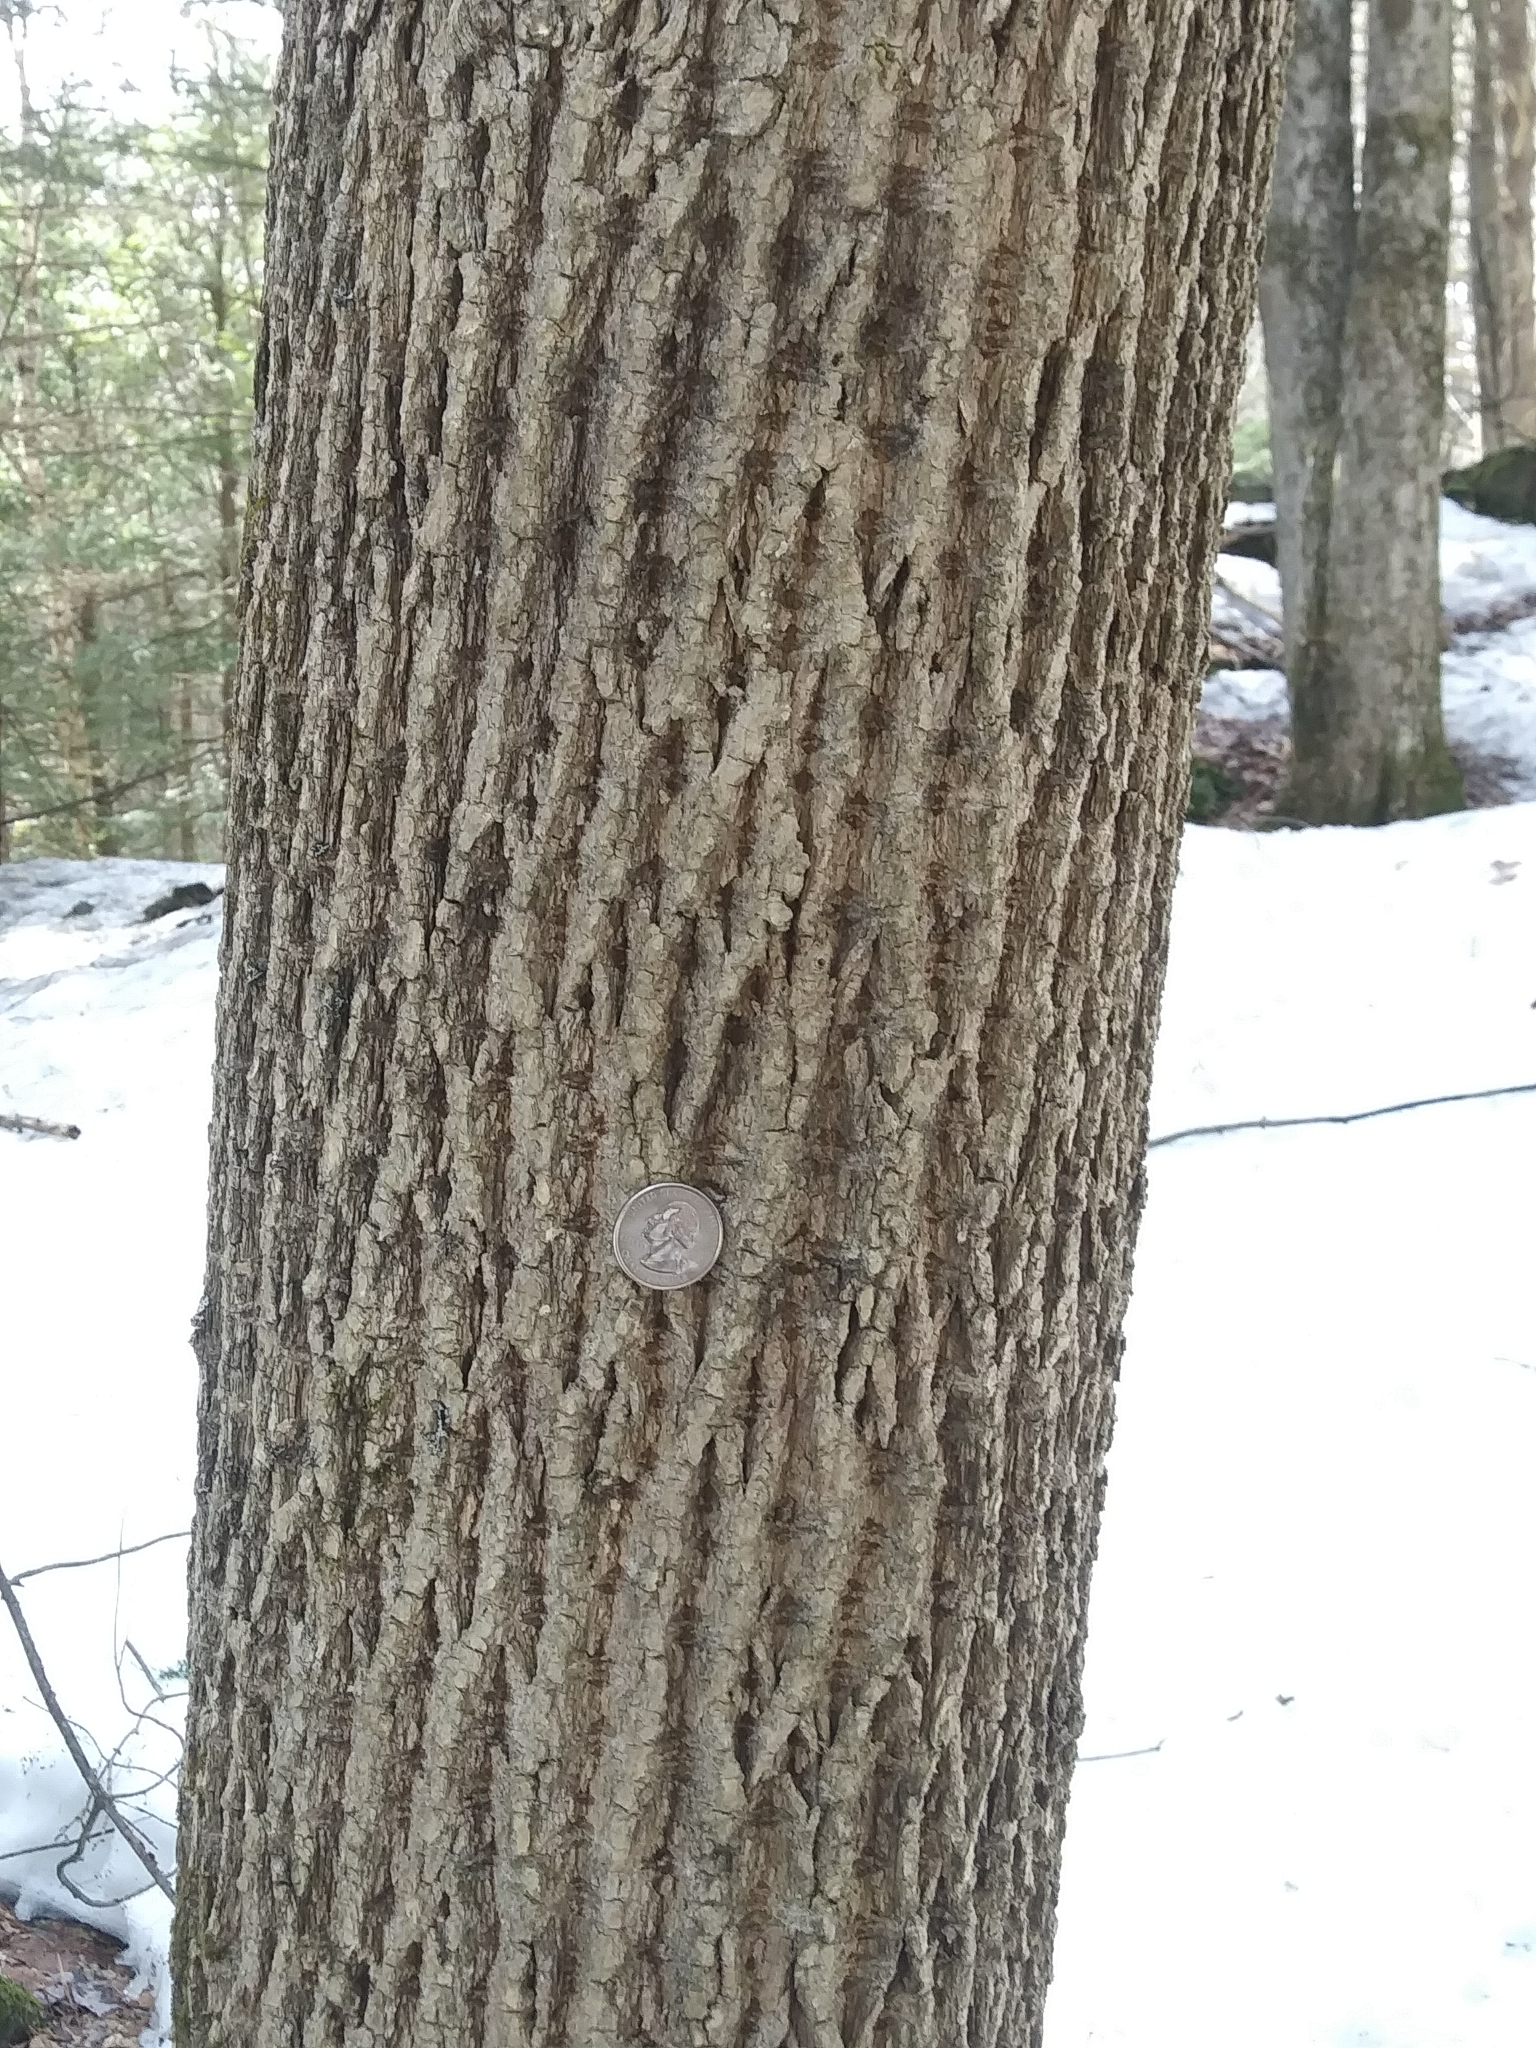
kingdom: Plantae
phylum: Tracheophyta
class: Magnoliopsida
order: Lamiales
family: Oleaceae
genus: Fraxinus
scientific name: Fraxinus americana
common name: White ash
